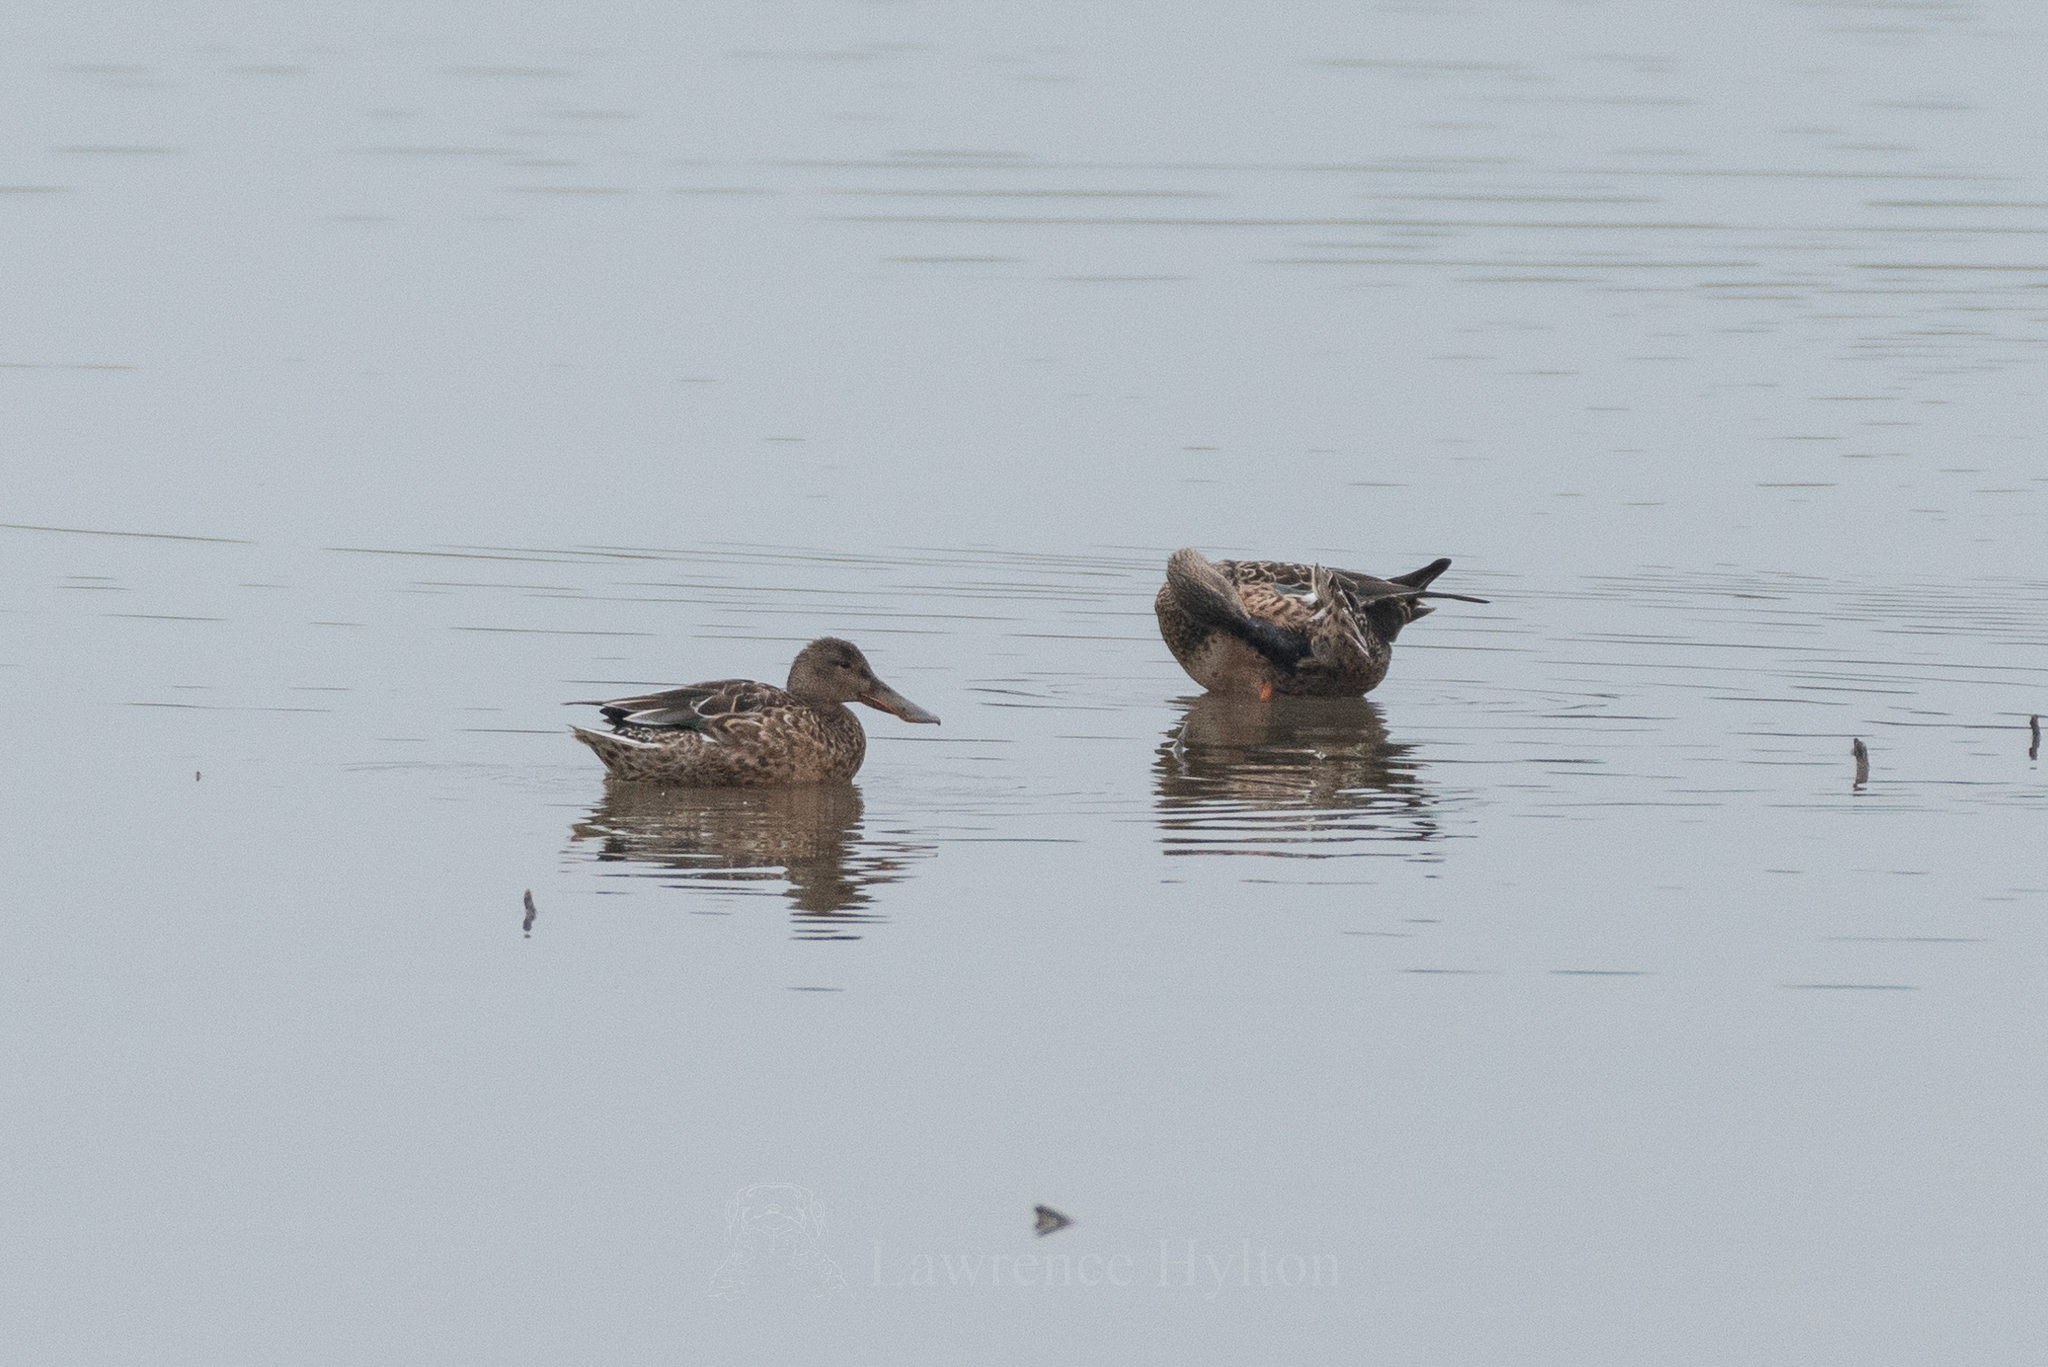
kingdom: Animalia
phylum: Chordata
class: Aves
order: Anseriformes
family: Anatidae
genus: Spatula
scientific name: Spatula clypeata
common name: Northern shoveler
